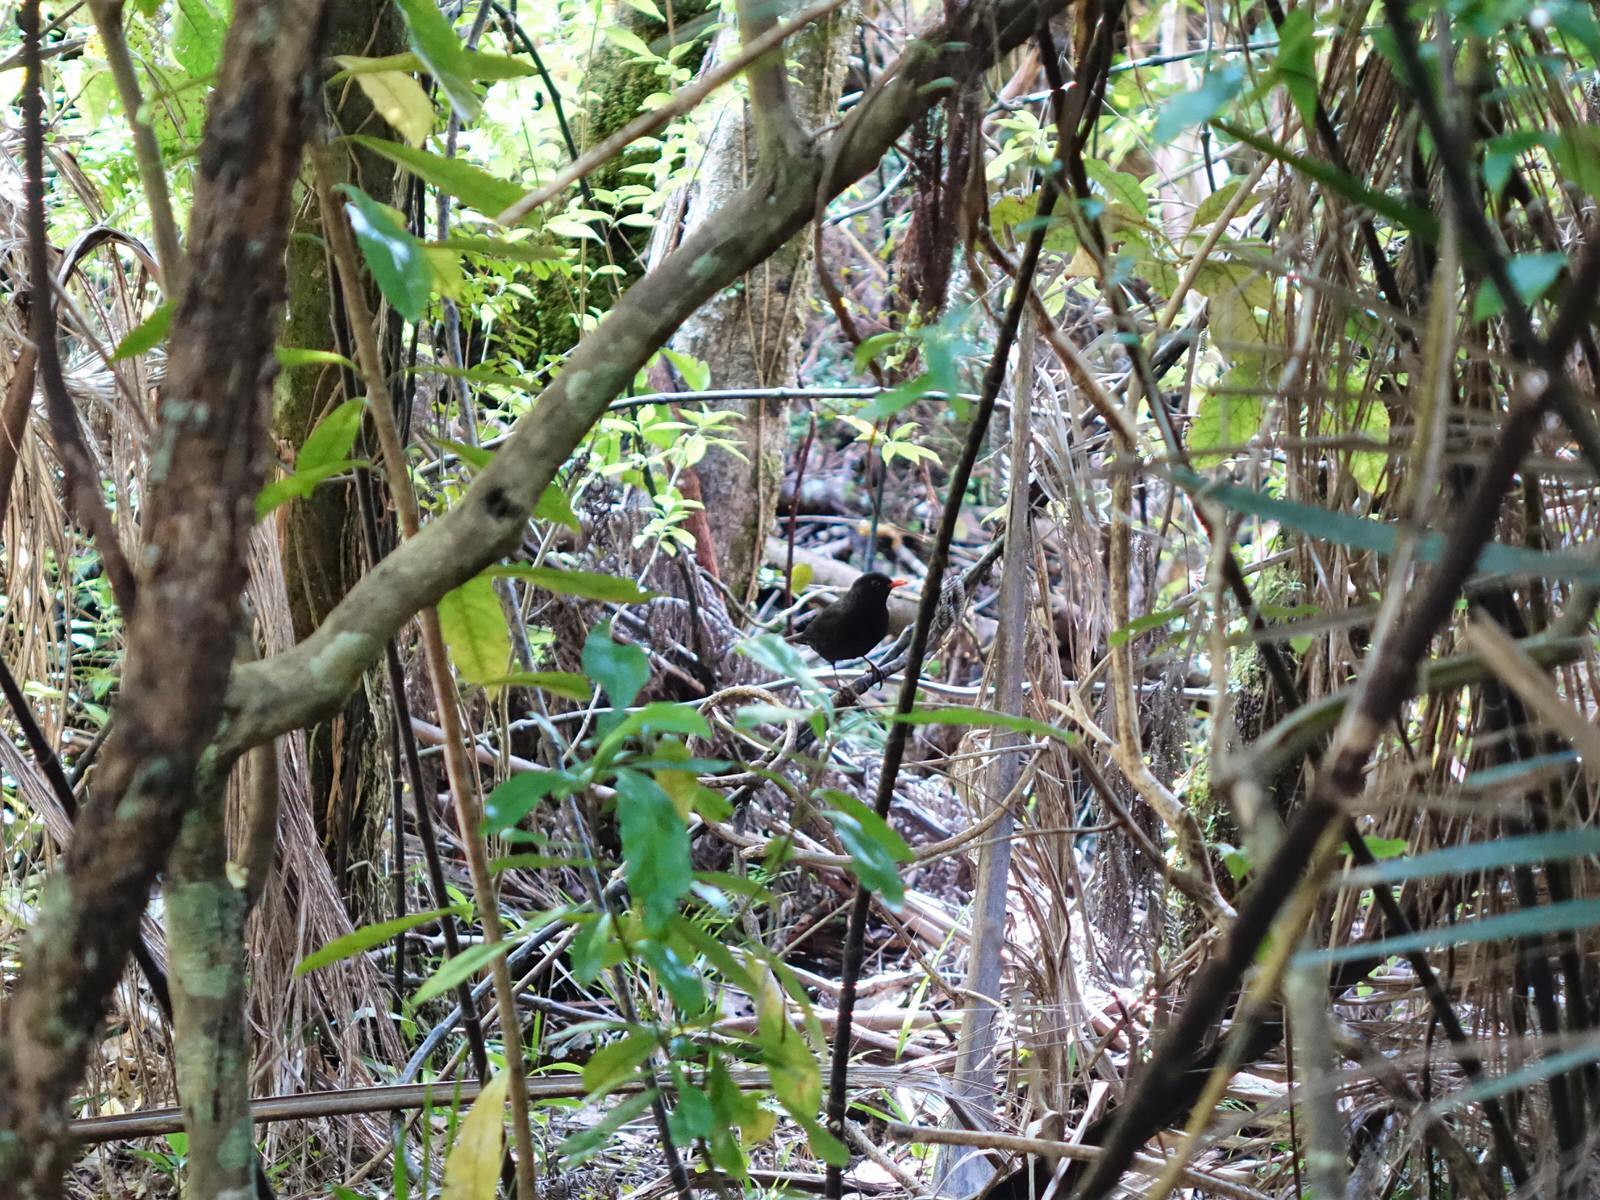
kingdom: Animalia
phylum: Chordata
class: Aves
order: Passeriformes
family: Turdidae
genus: Turdus
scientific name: Turdus merula
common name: Common blackbird
